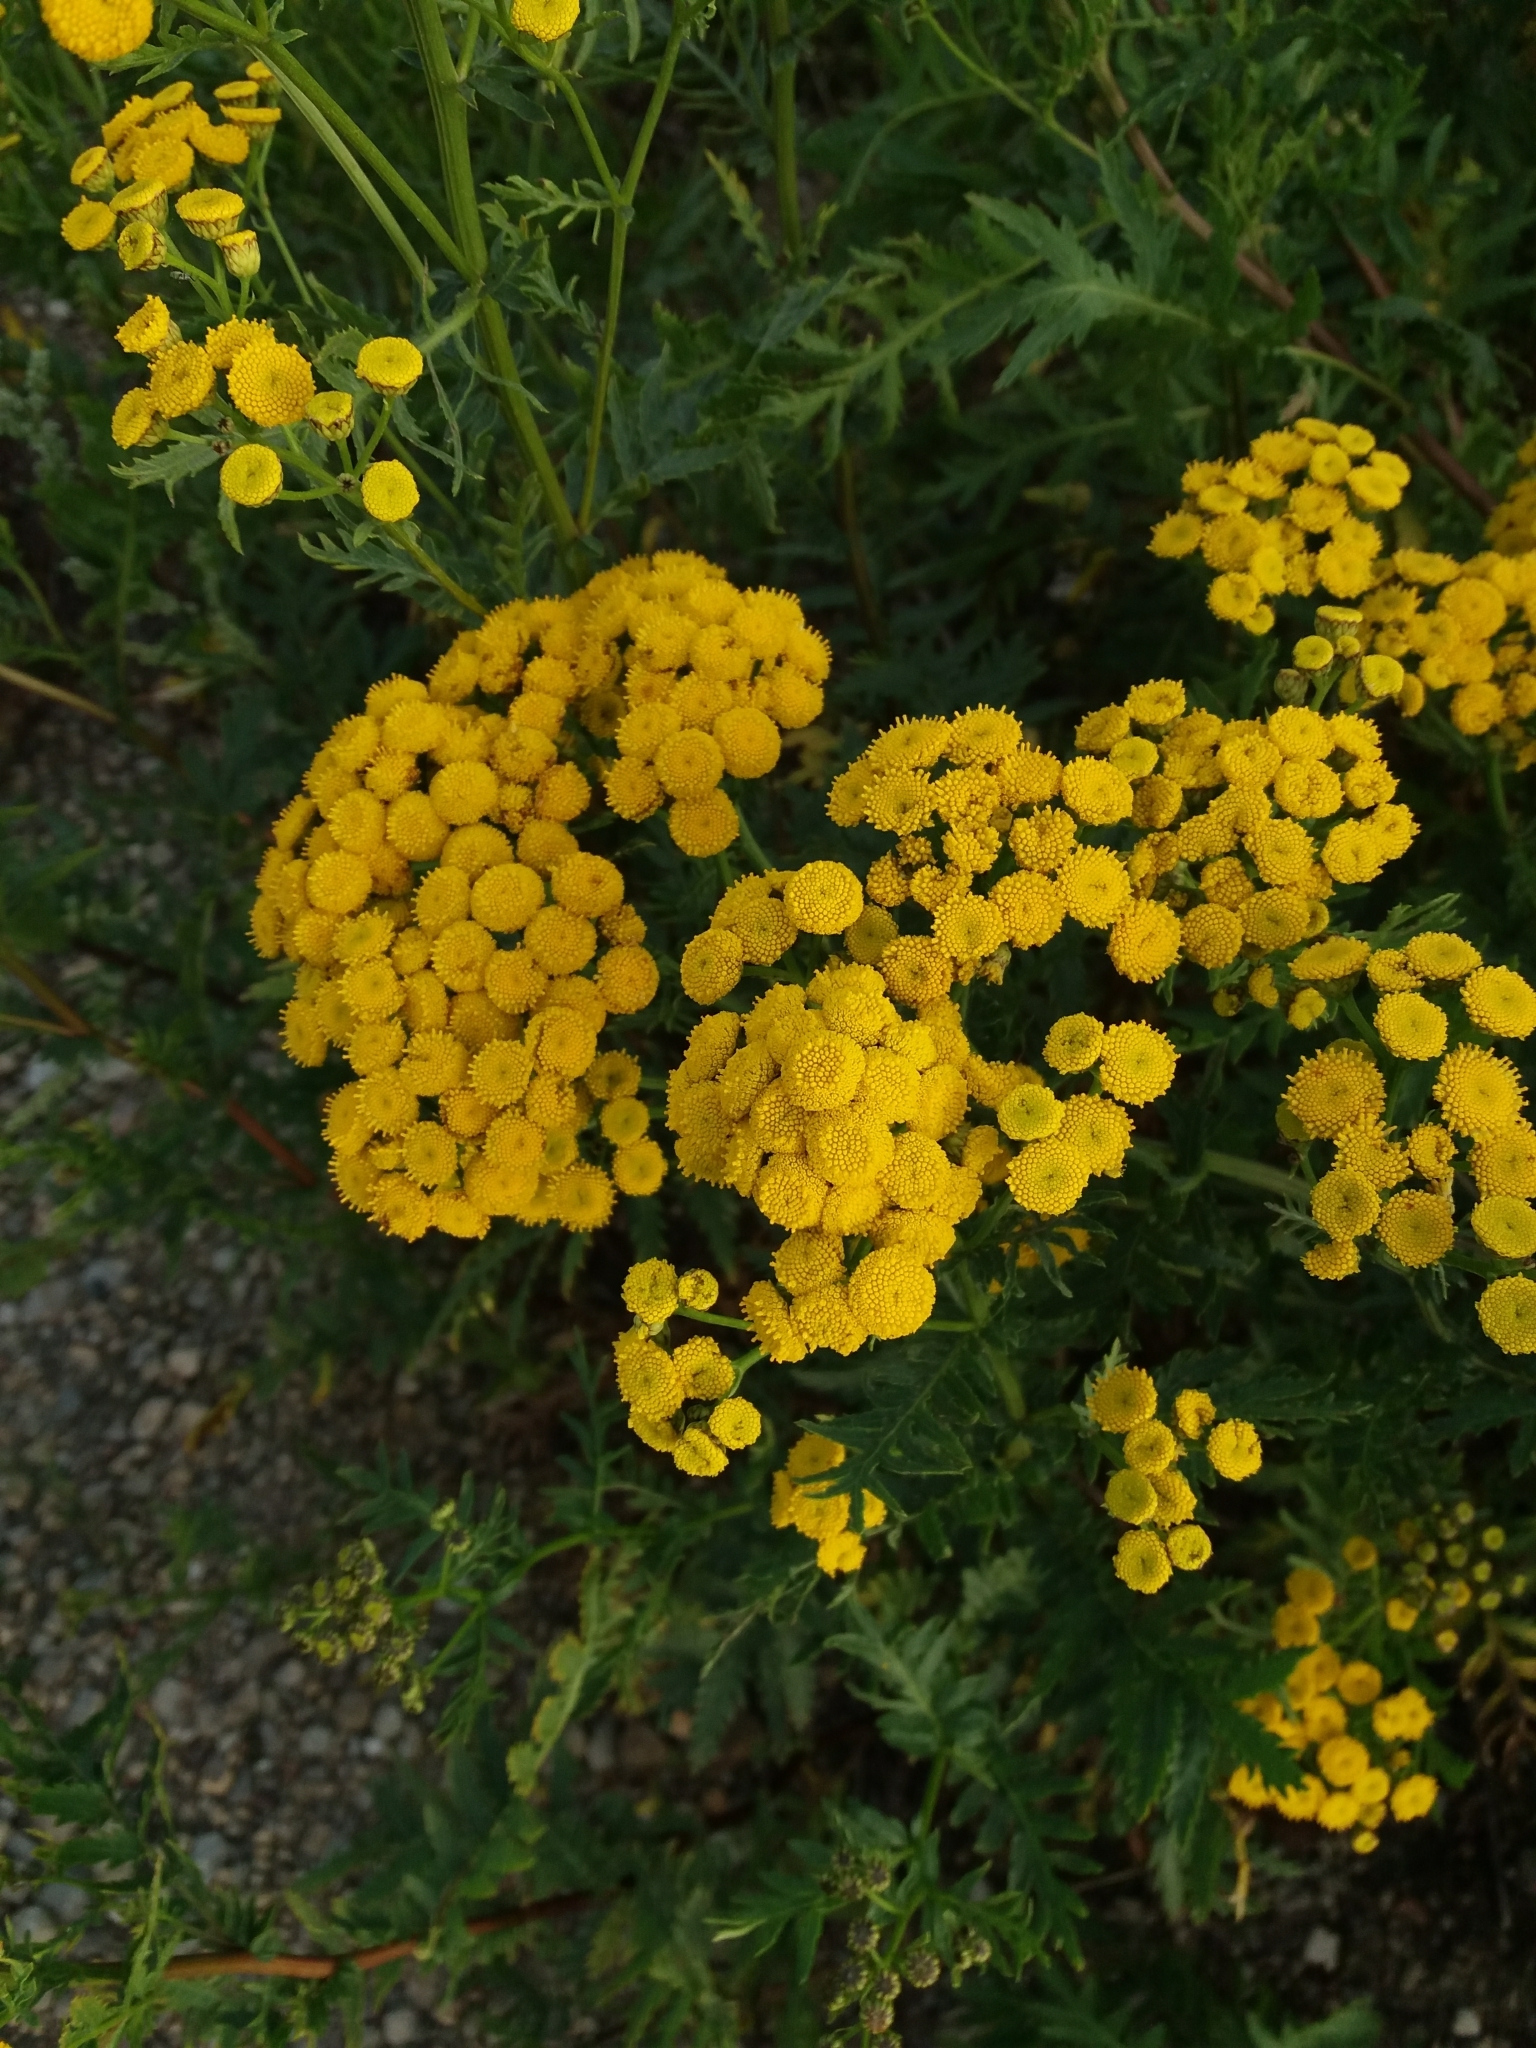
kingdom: Plantae
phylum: Tracheophyta
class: Magnoliopsida
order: Asterales
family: Asteraceae
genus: Tanacetum
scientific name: Tanacetum vulgare
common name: Common tansy
